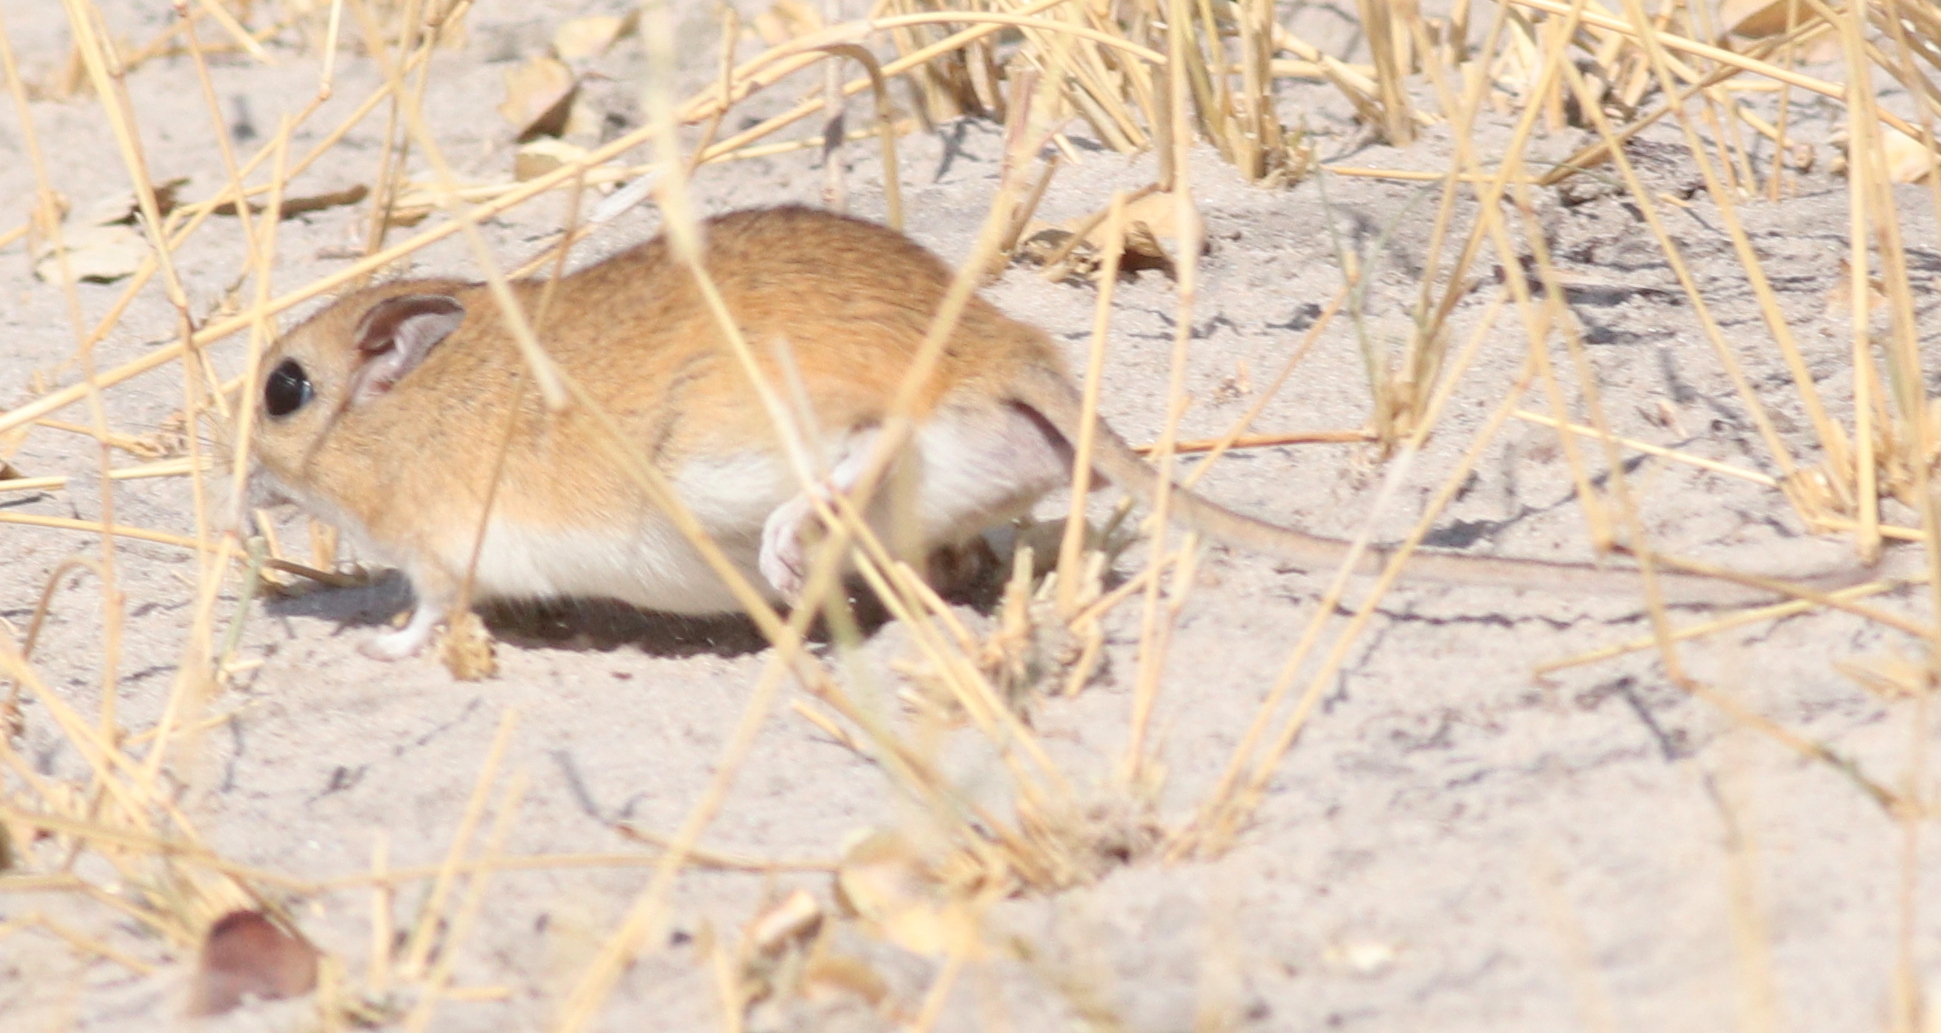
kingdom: Animalia
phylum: Chordata
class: Mammalia
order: Rodentia
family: Muridae
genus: Gerbilliscus
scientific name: Gerbilliscus leucogaster
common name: Bushveld gerbil
